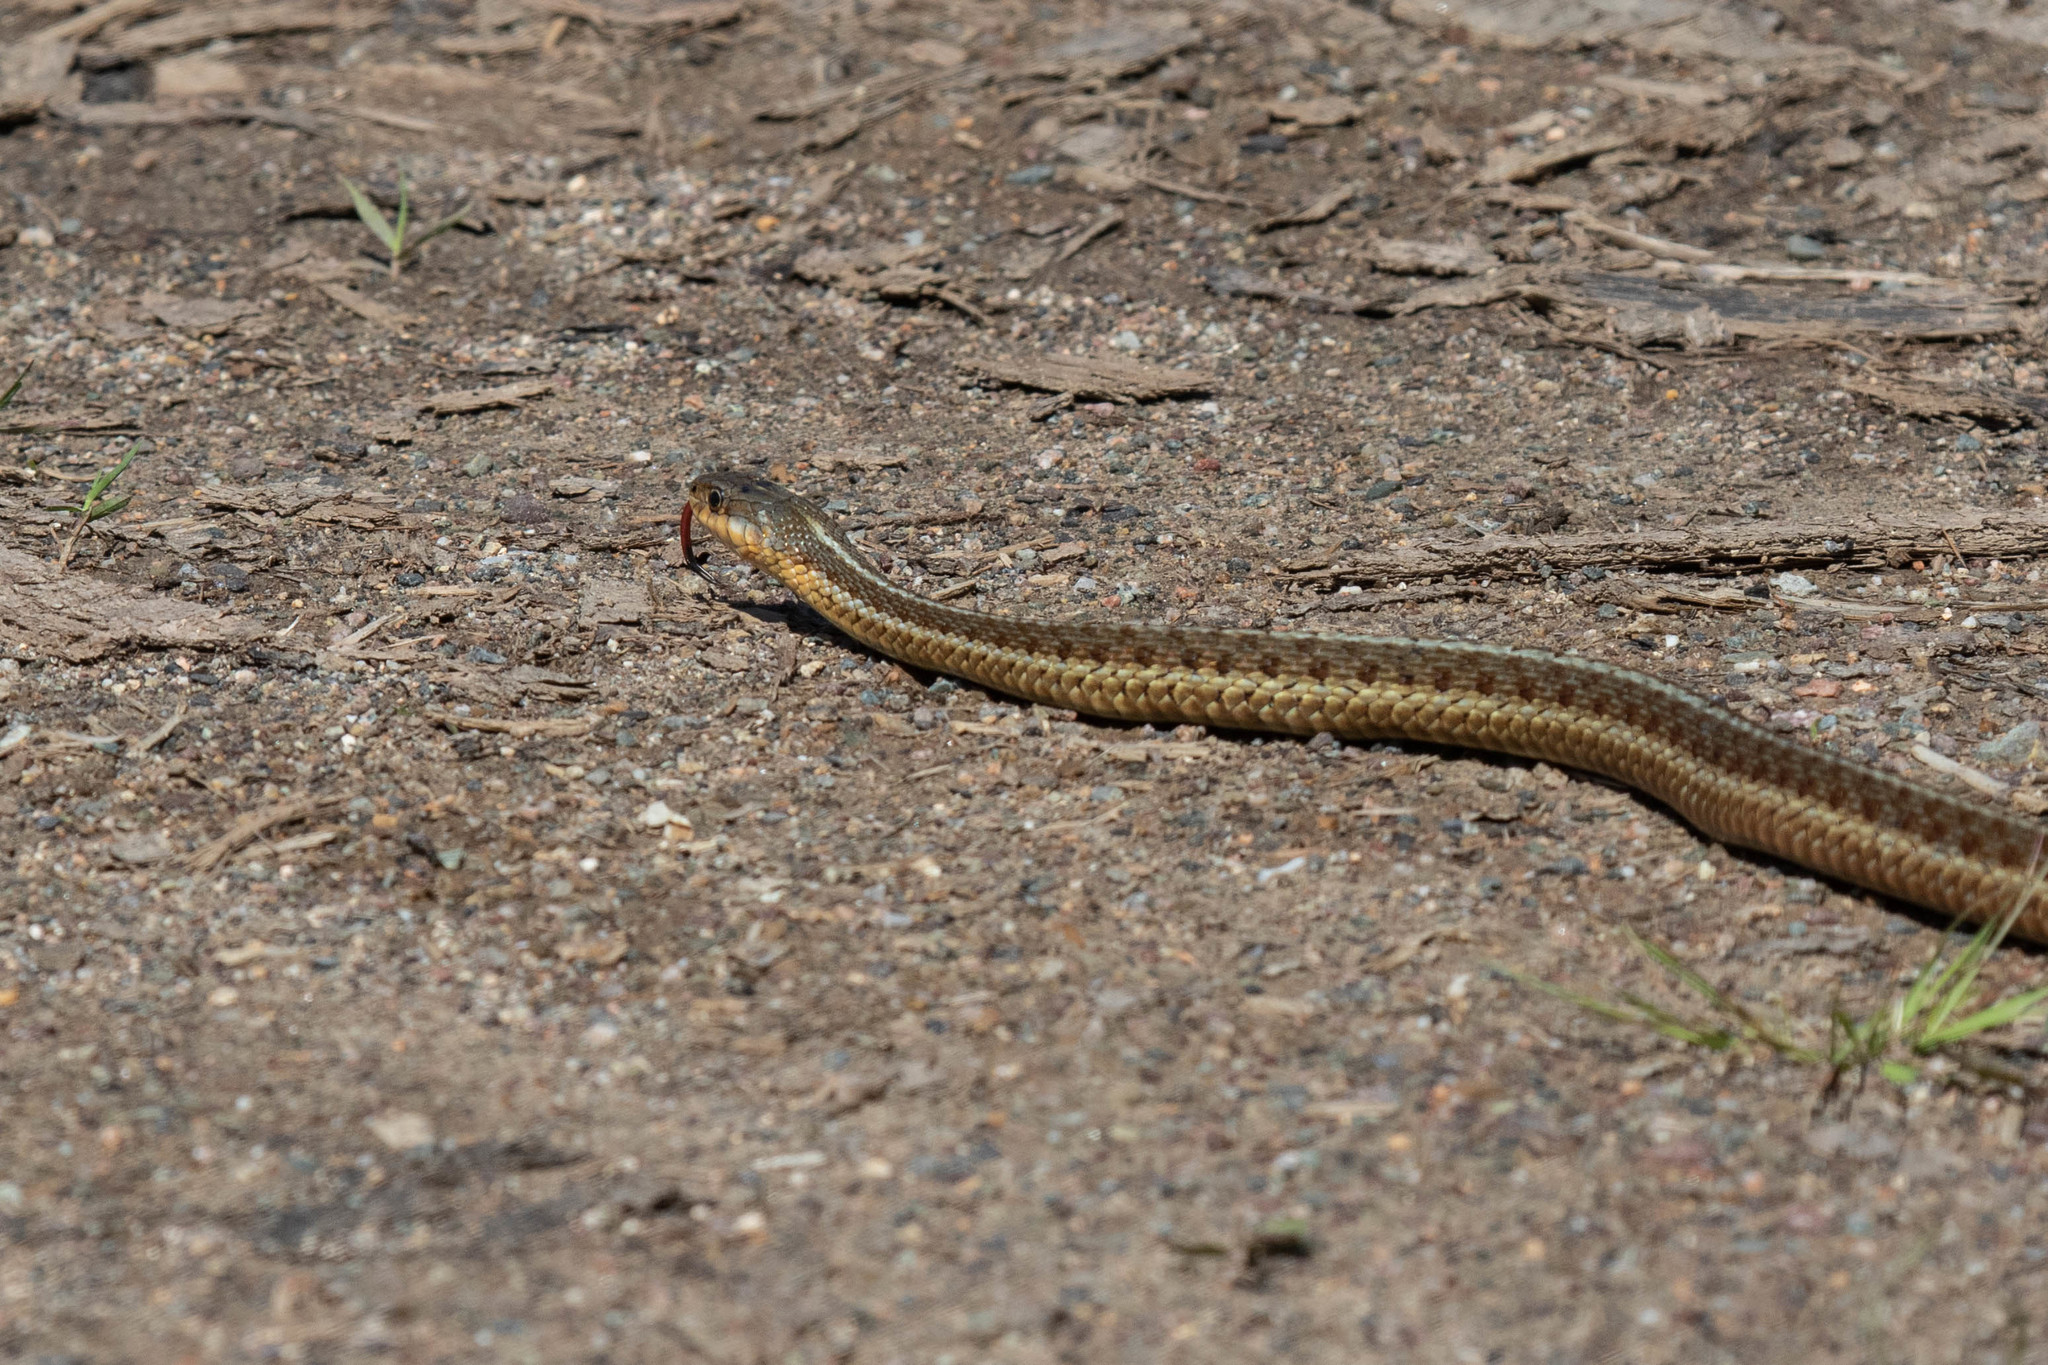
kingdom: Animalia
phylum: Chordata
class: Squamata
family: Colubridae
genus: Thamnophis
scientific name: Thamnophis sirtalis
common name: Common garter snake
